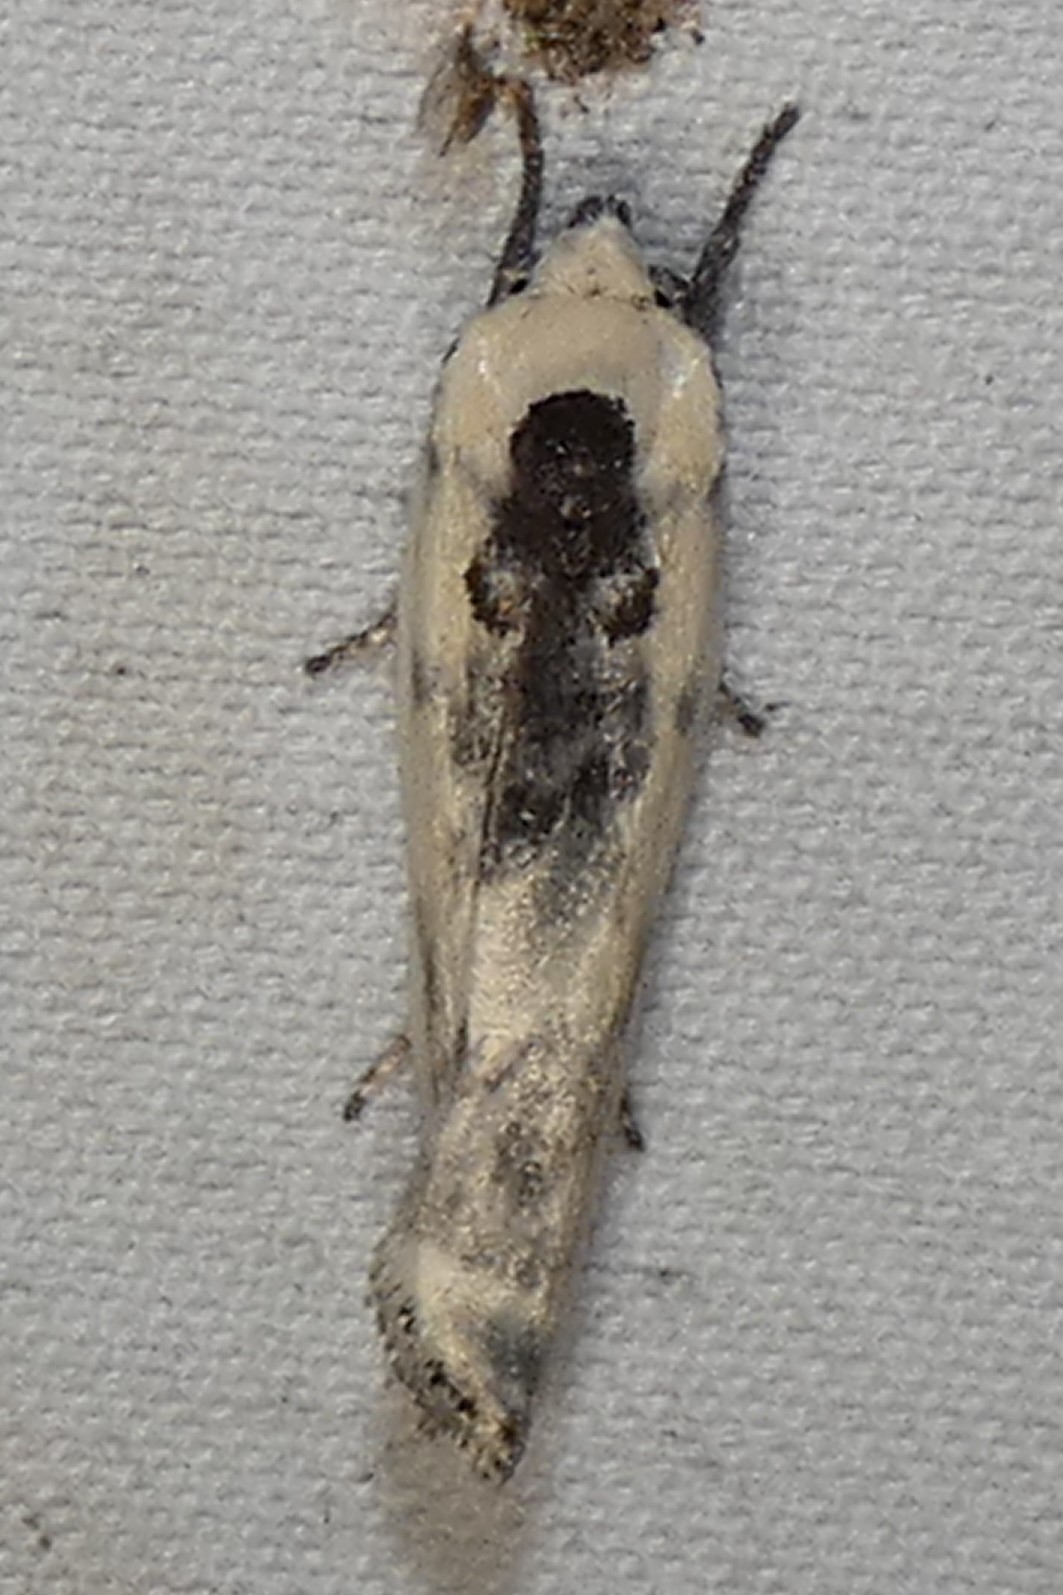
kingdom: Animalia
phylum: Arthropoda
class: Insecta
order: Lepidoptera
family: Depressariidae
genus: Antaeotricha
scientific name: Antaeotricha schlaegeri
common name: Schlaeger's fruitworm moth
